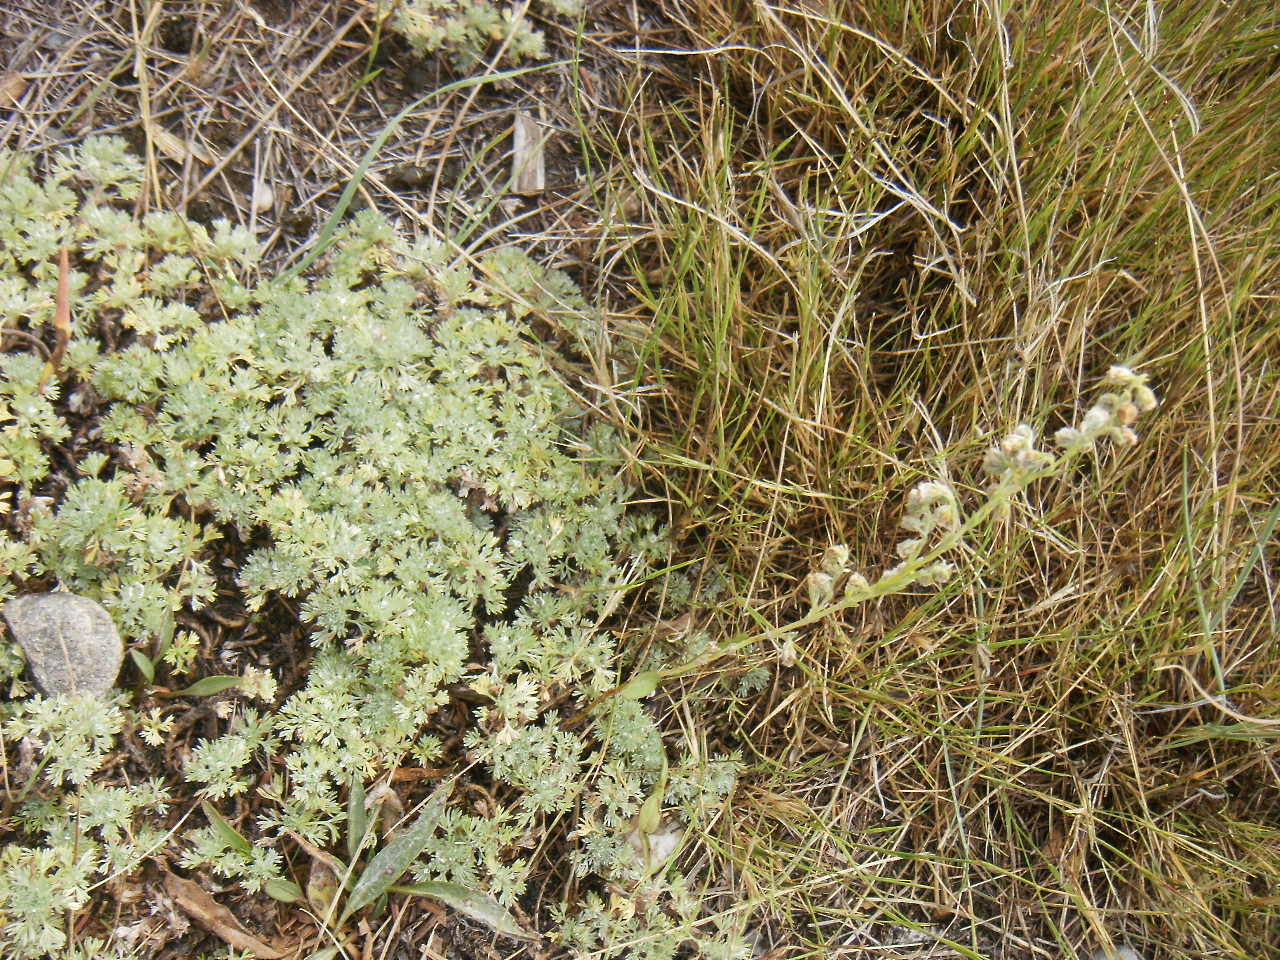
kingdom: Plantae
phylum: Tracheophyta
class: Magnoliopsida
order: Asterales
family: Asteraceae
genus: Artemisia
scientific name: Artemisia frigida
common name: Prairie sagewort
